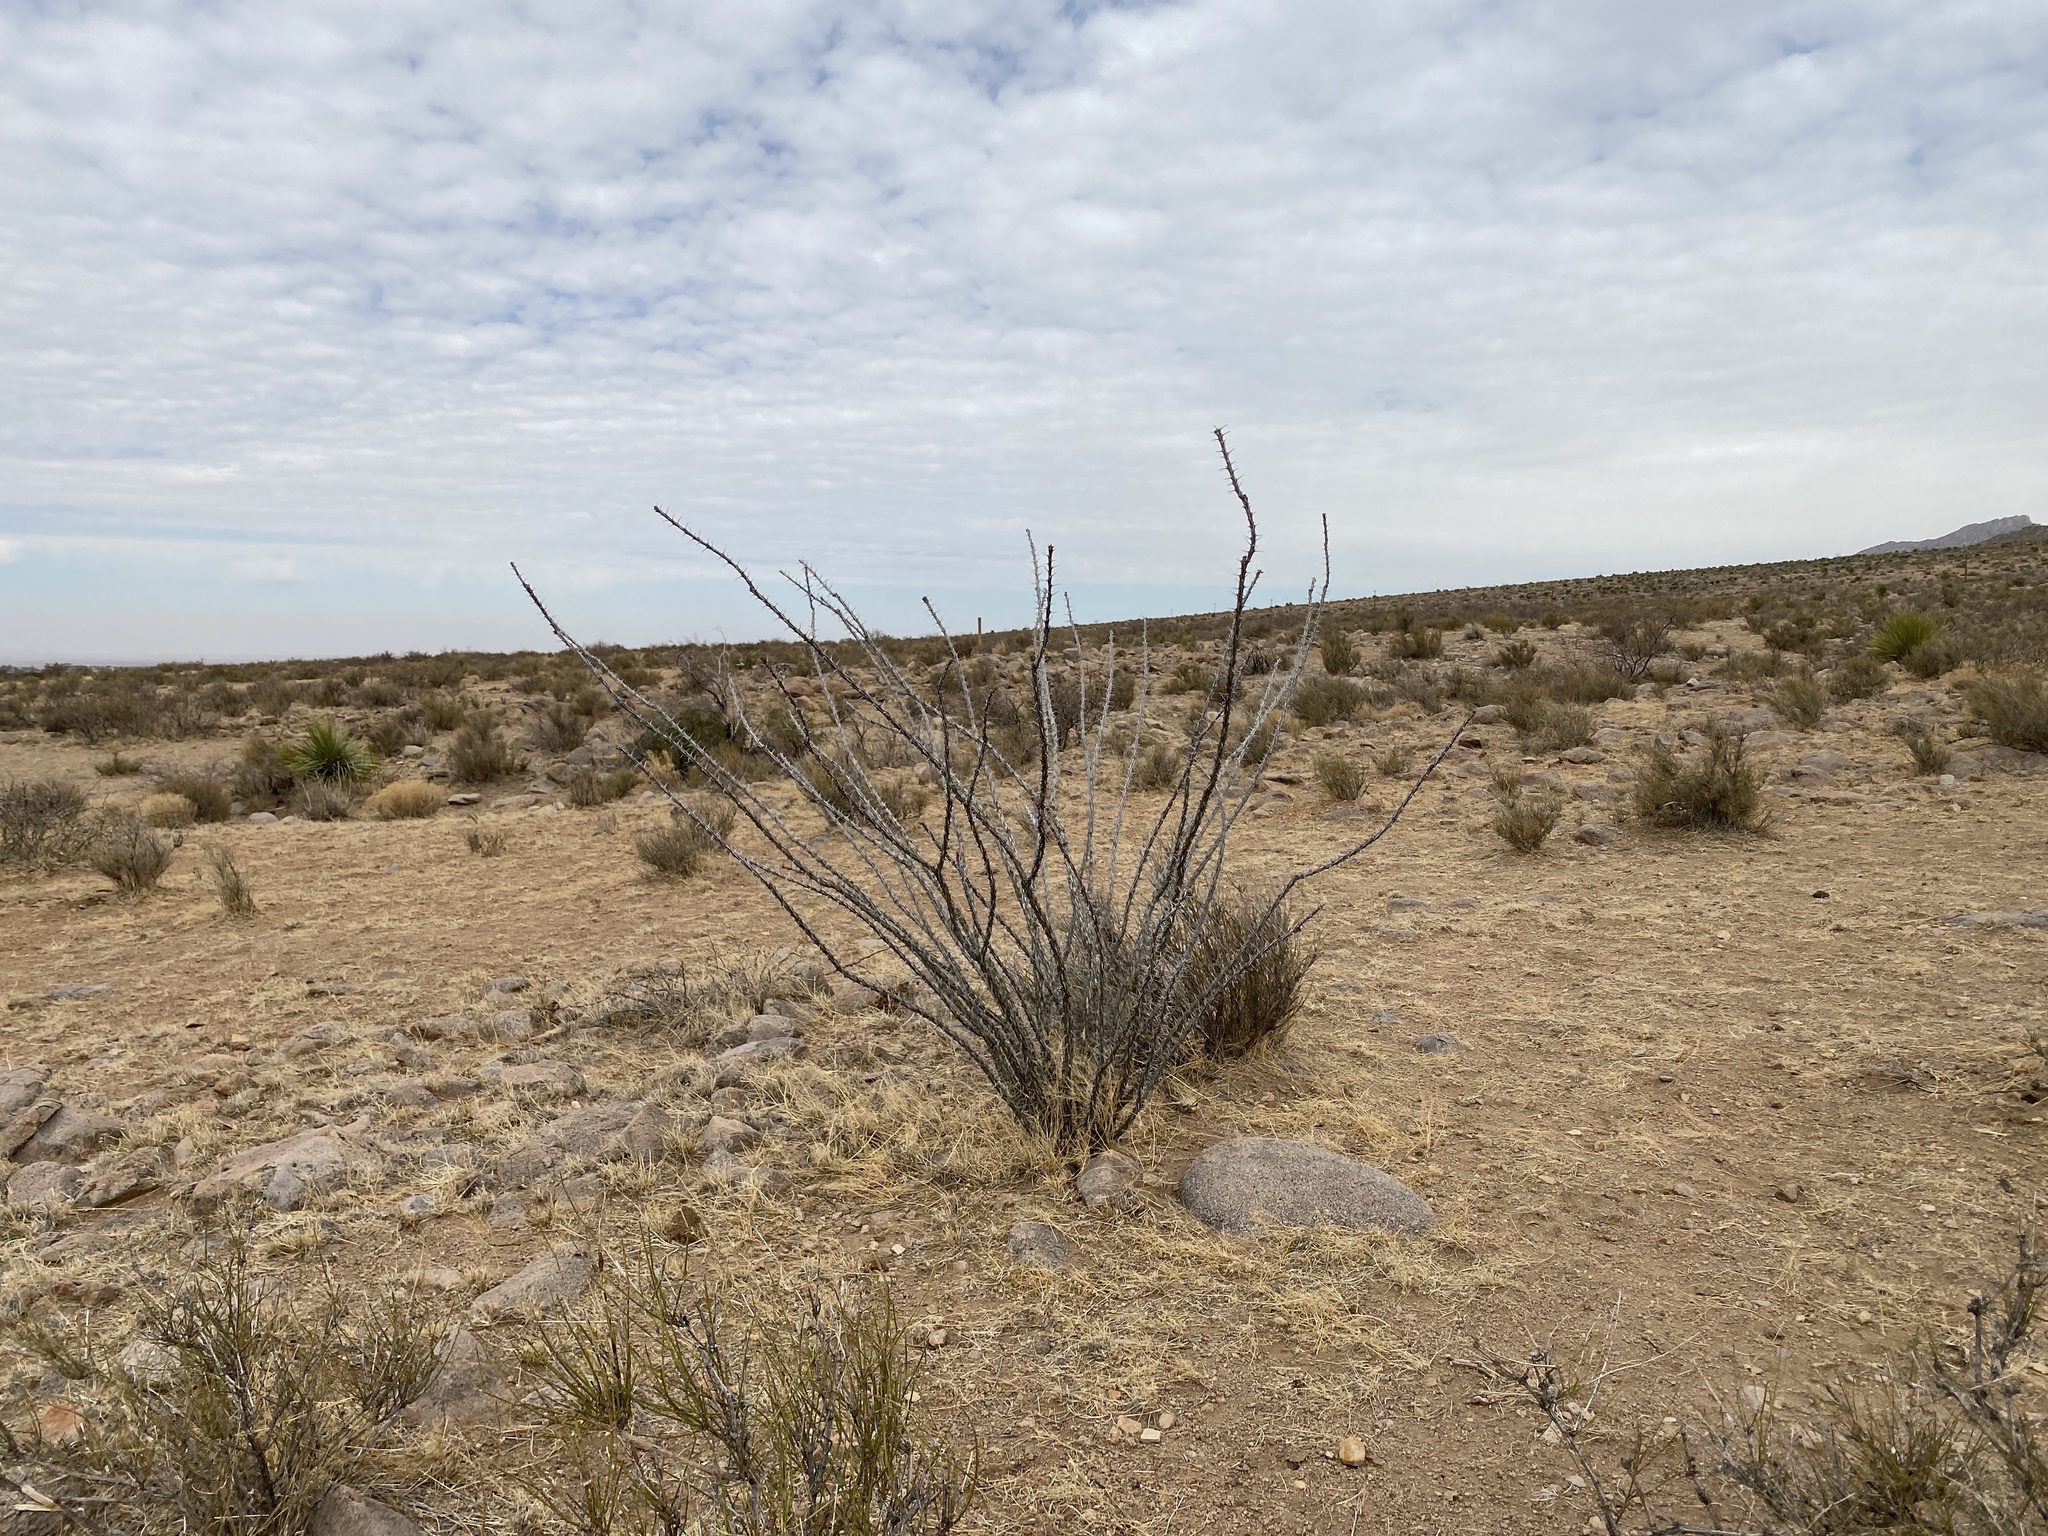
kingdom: Plantae
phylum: Tracheophyta
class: Magnoliopsida
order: Ericales
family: Fouquieriaceae
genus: Fouquieria
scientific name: Fouquieria splendens
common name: Vine-cactus
